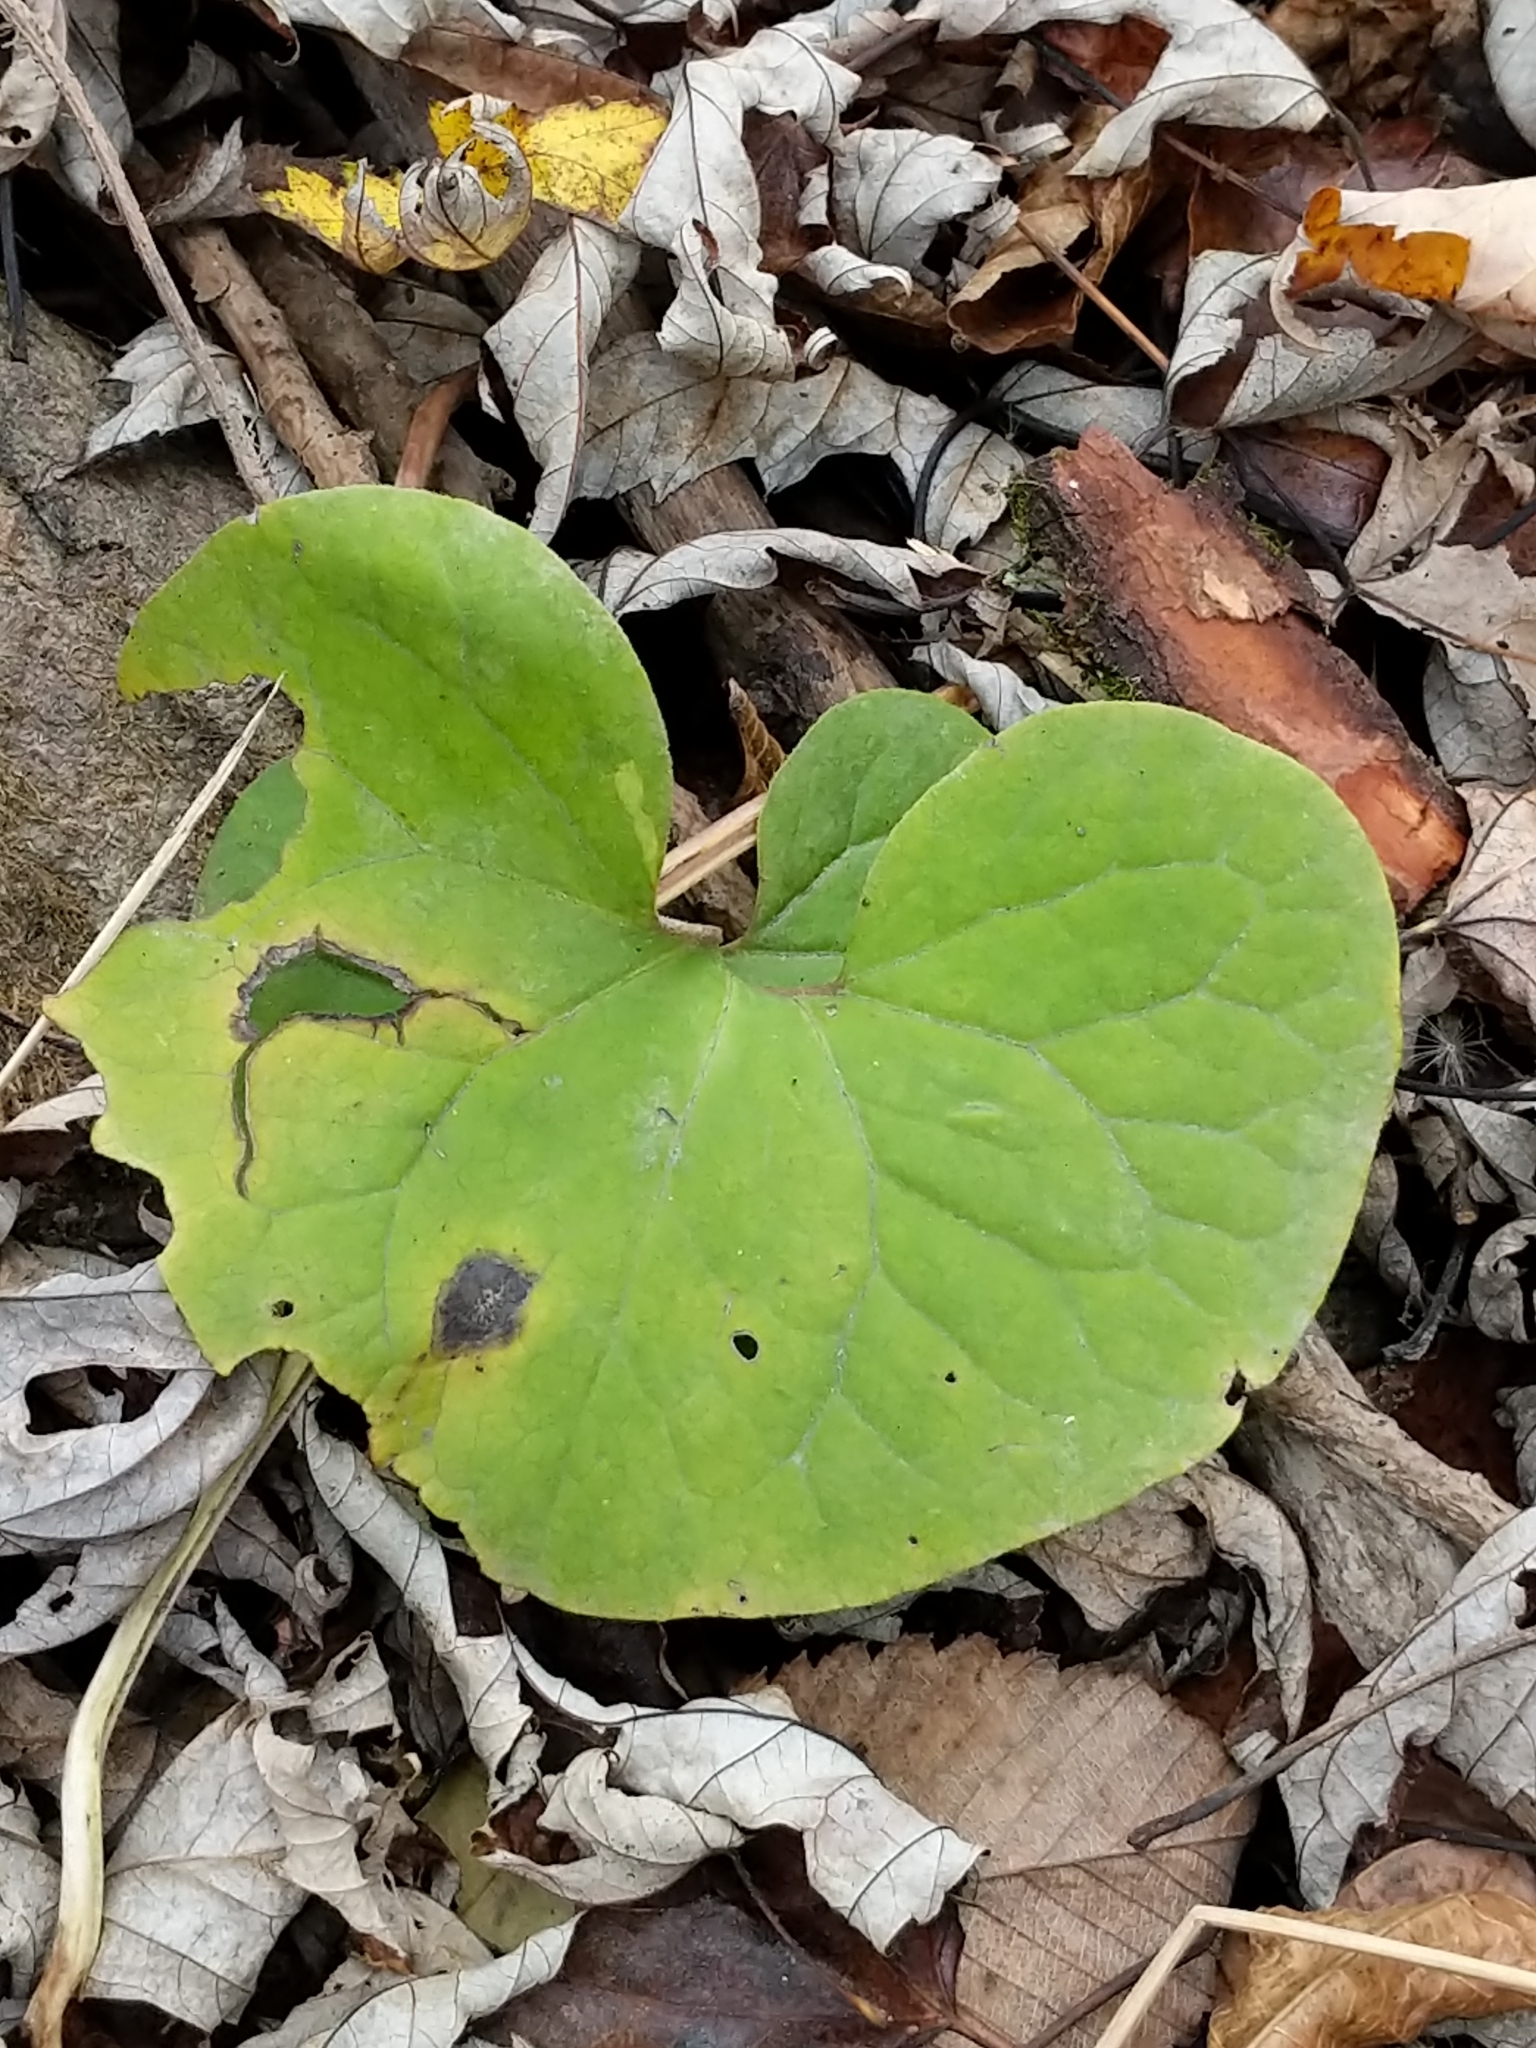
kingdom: Plantae
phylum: Tracheophyta
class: Magnoliopsida
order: Piperales
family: Aristolochiaceae
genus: Asarum
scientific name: Asarum canadense
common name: Wild ginger
